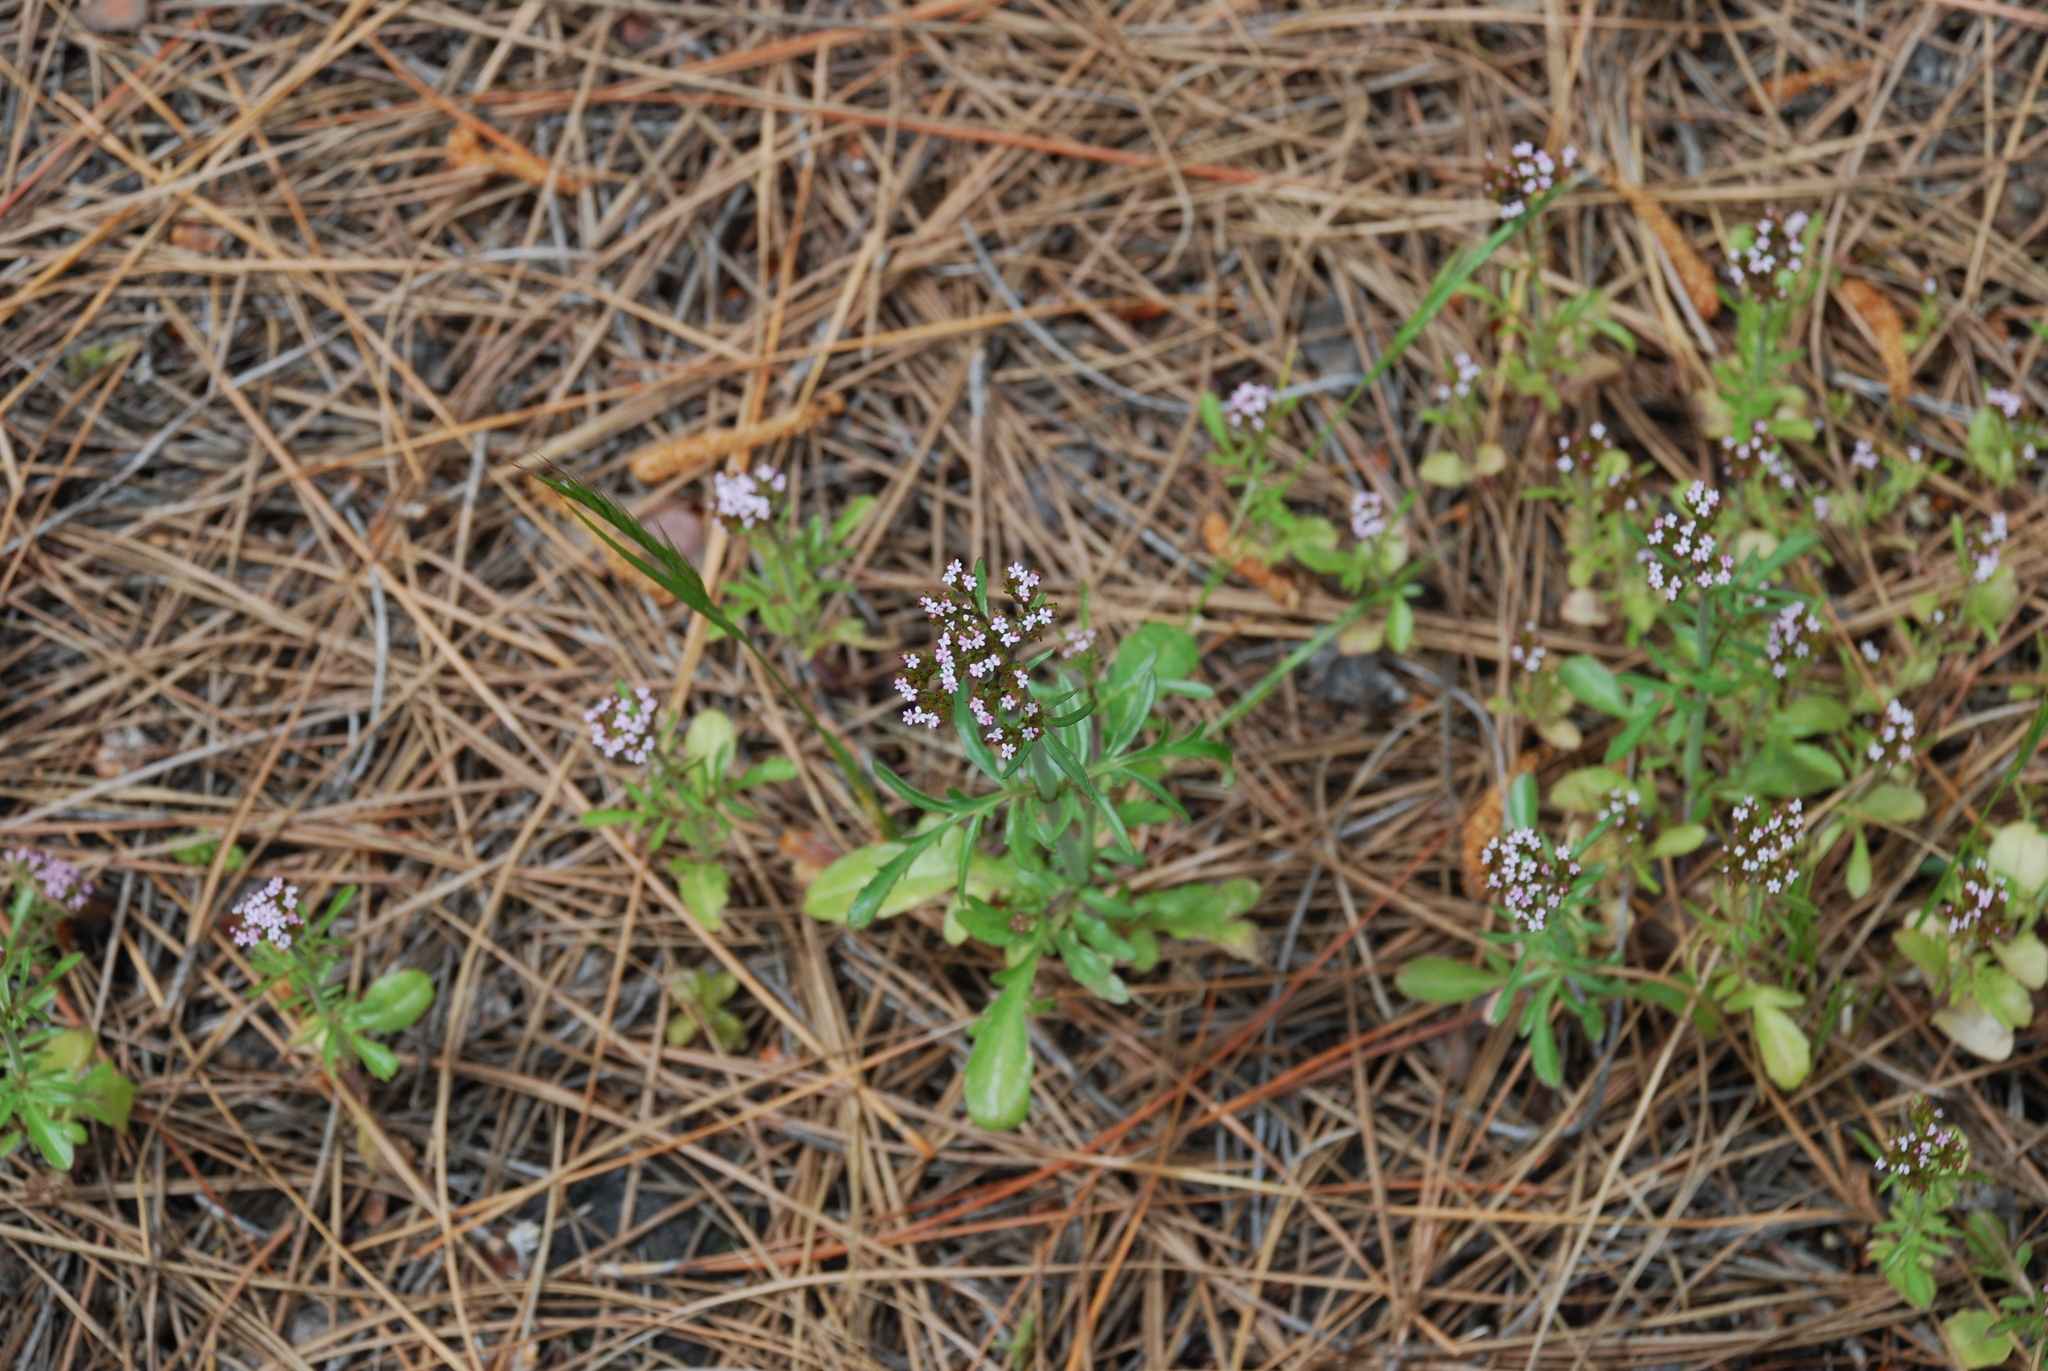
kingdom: Plantae
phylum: Tracheophyta
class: Magnoliopsida
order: Dipsacales
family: Caprifoliaceae
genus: Centranthus
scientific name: Centranthus calcitrapae
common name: Annual valerian
